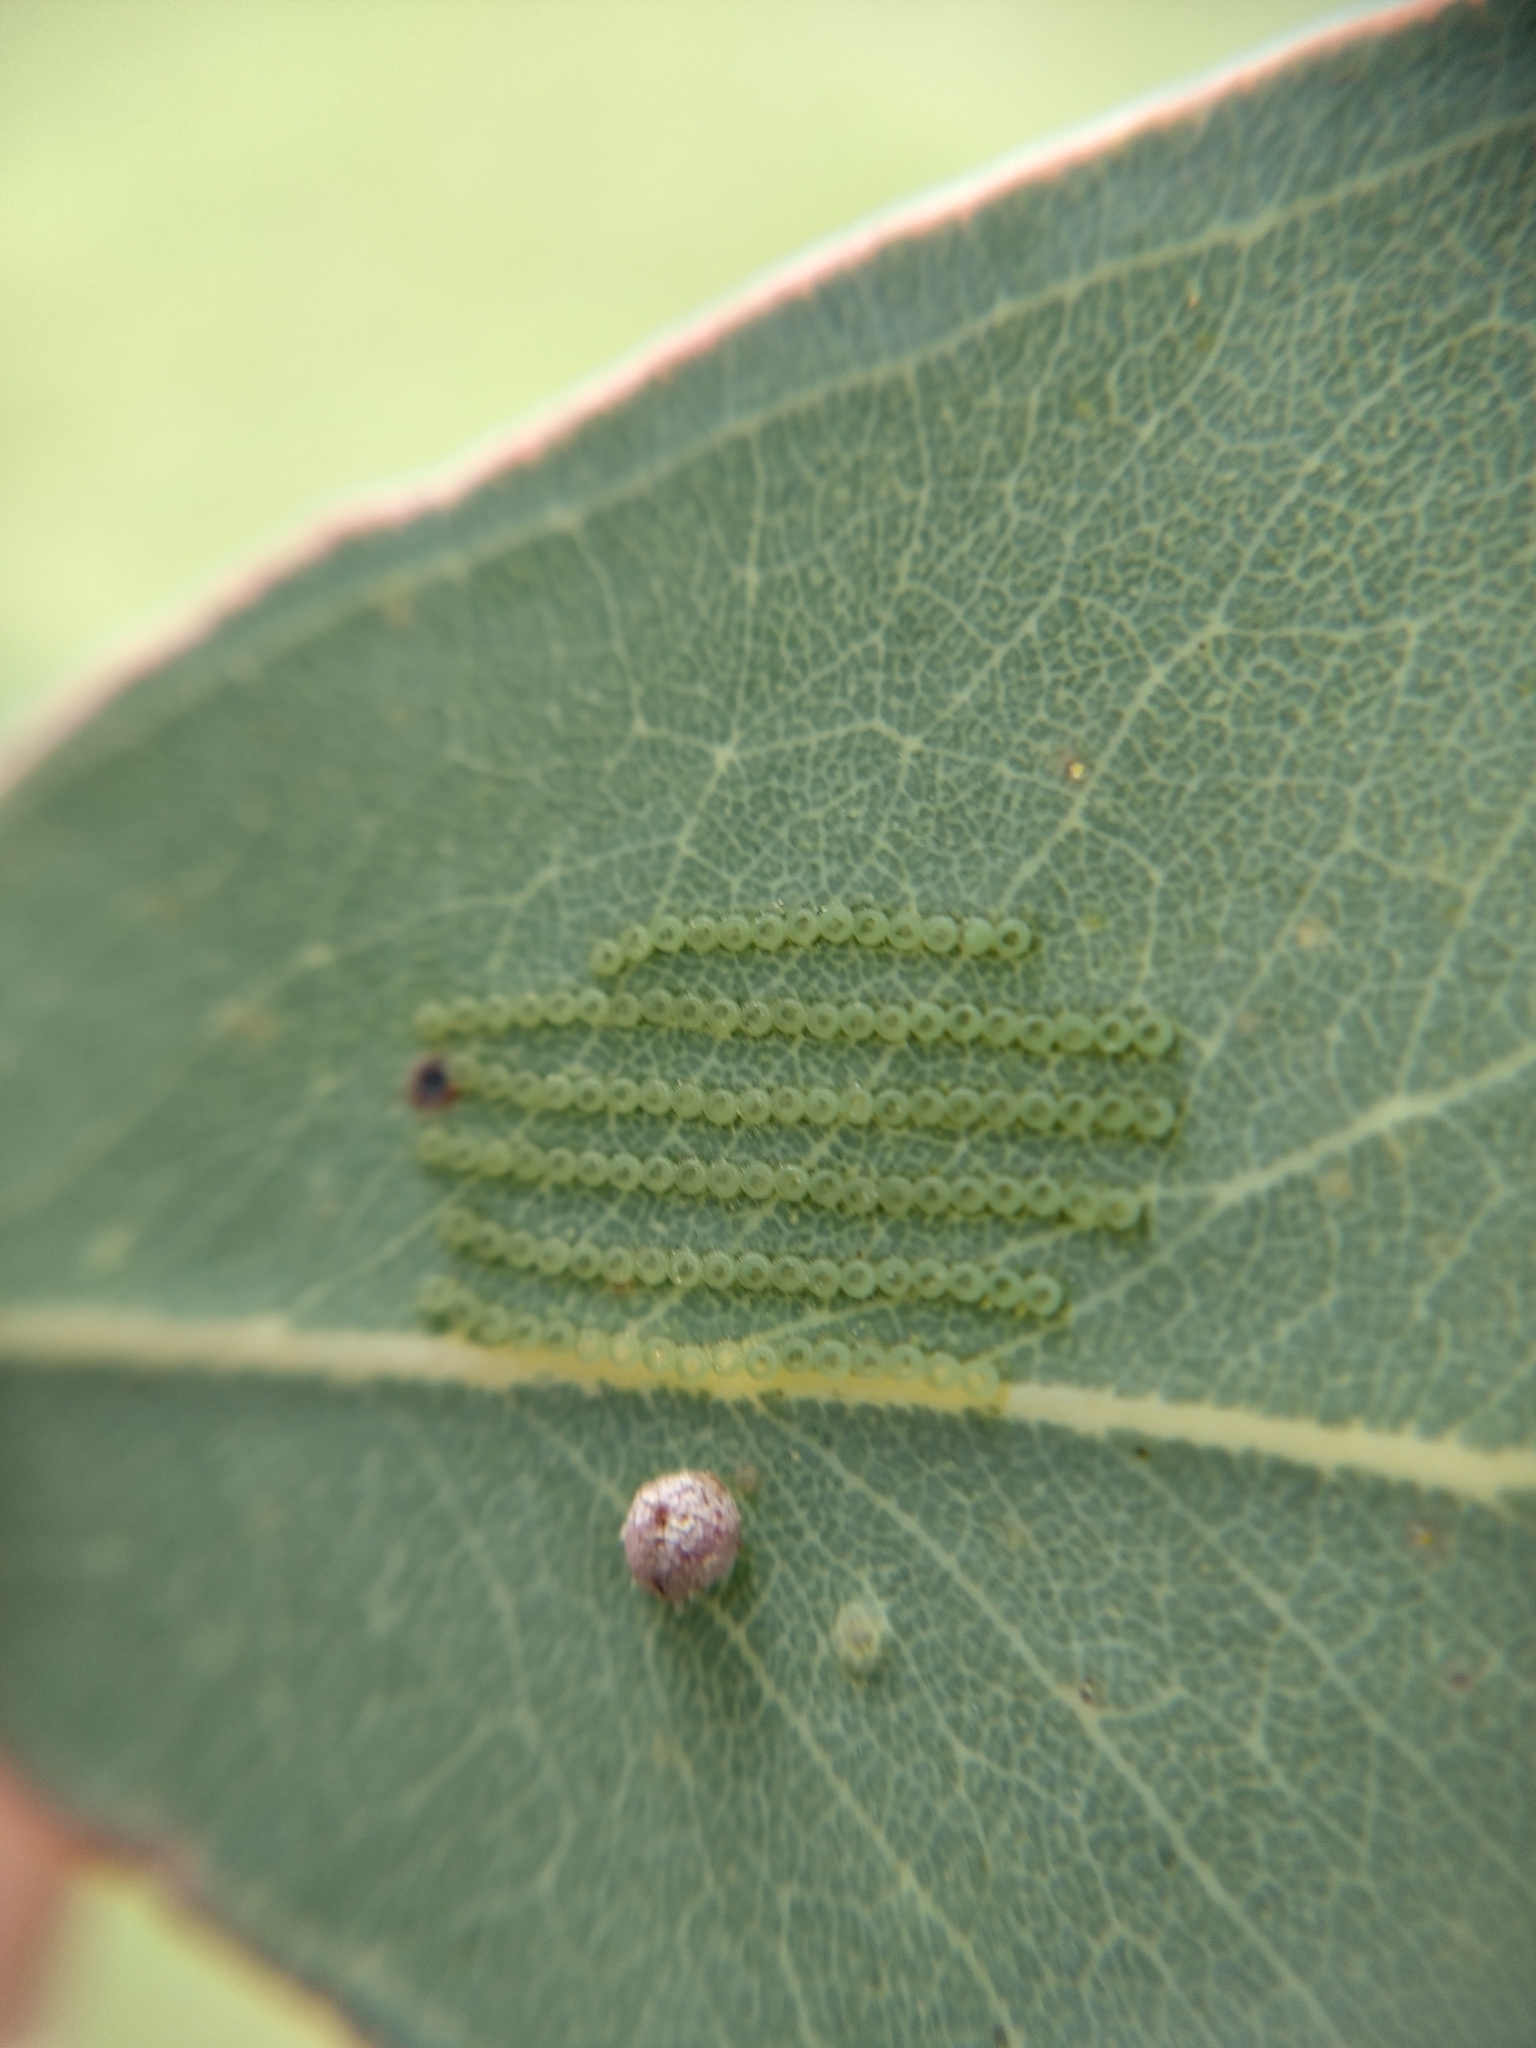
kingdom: Animalia
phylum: Arthropoda
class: Insecta
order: Lepidoptera
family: Nolidae
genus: Uraba
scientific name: Uraba lugens
